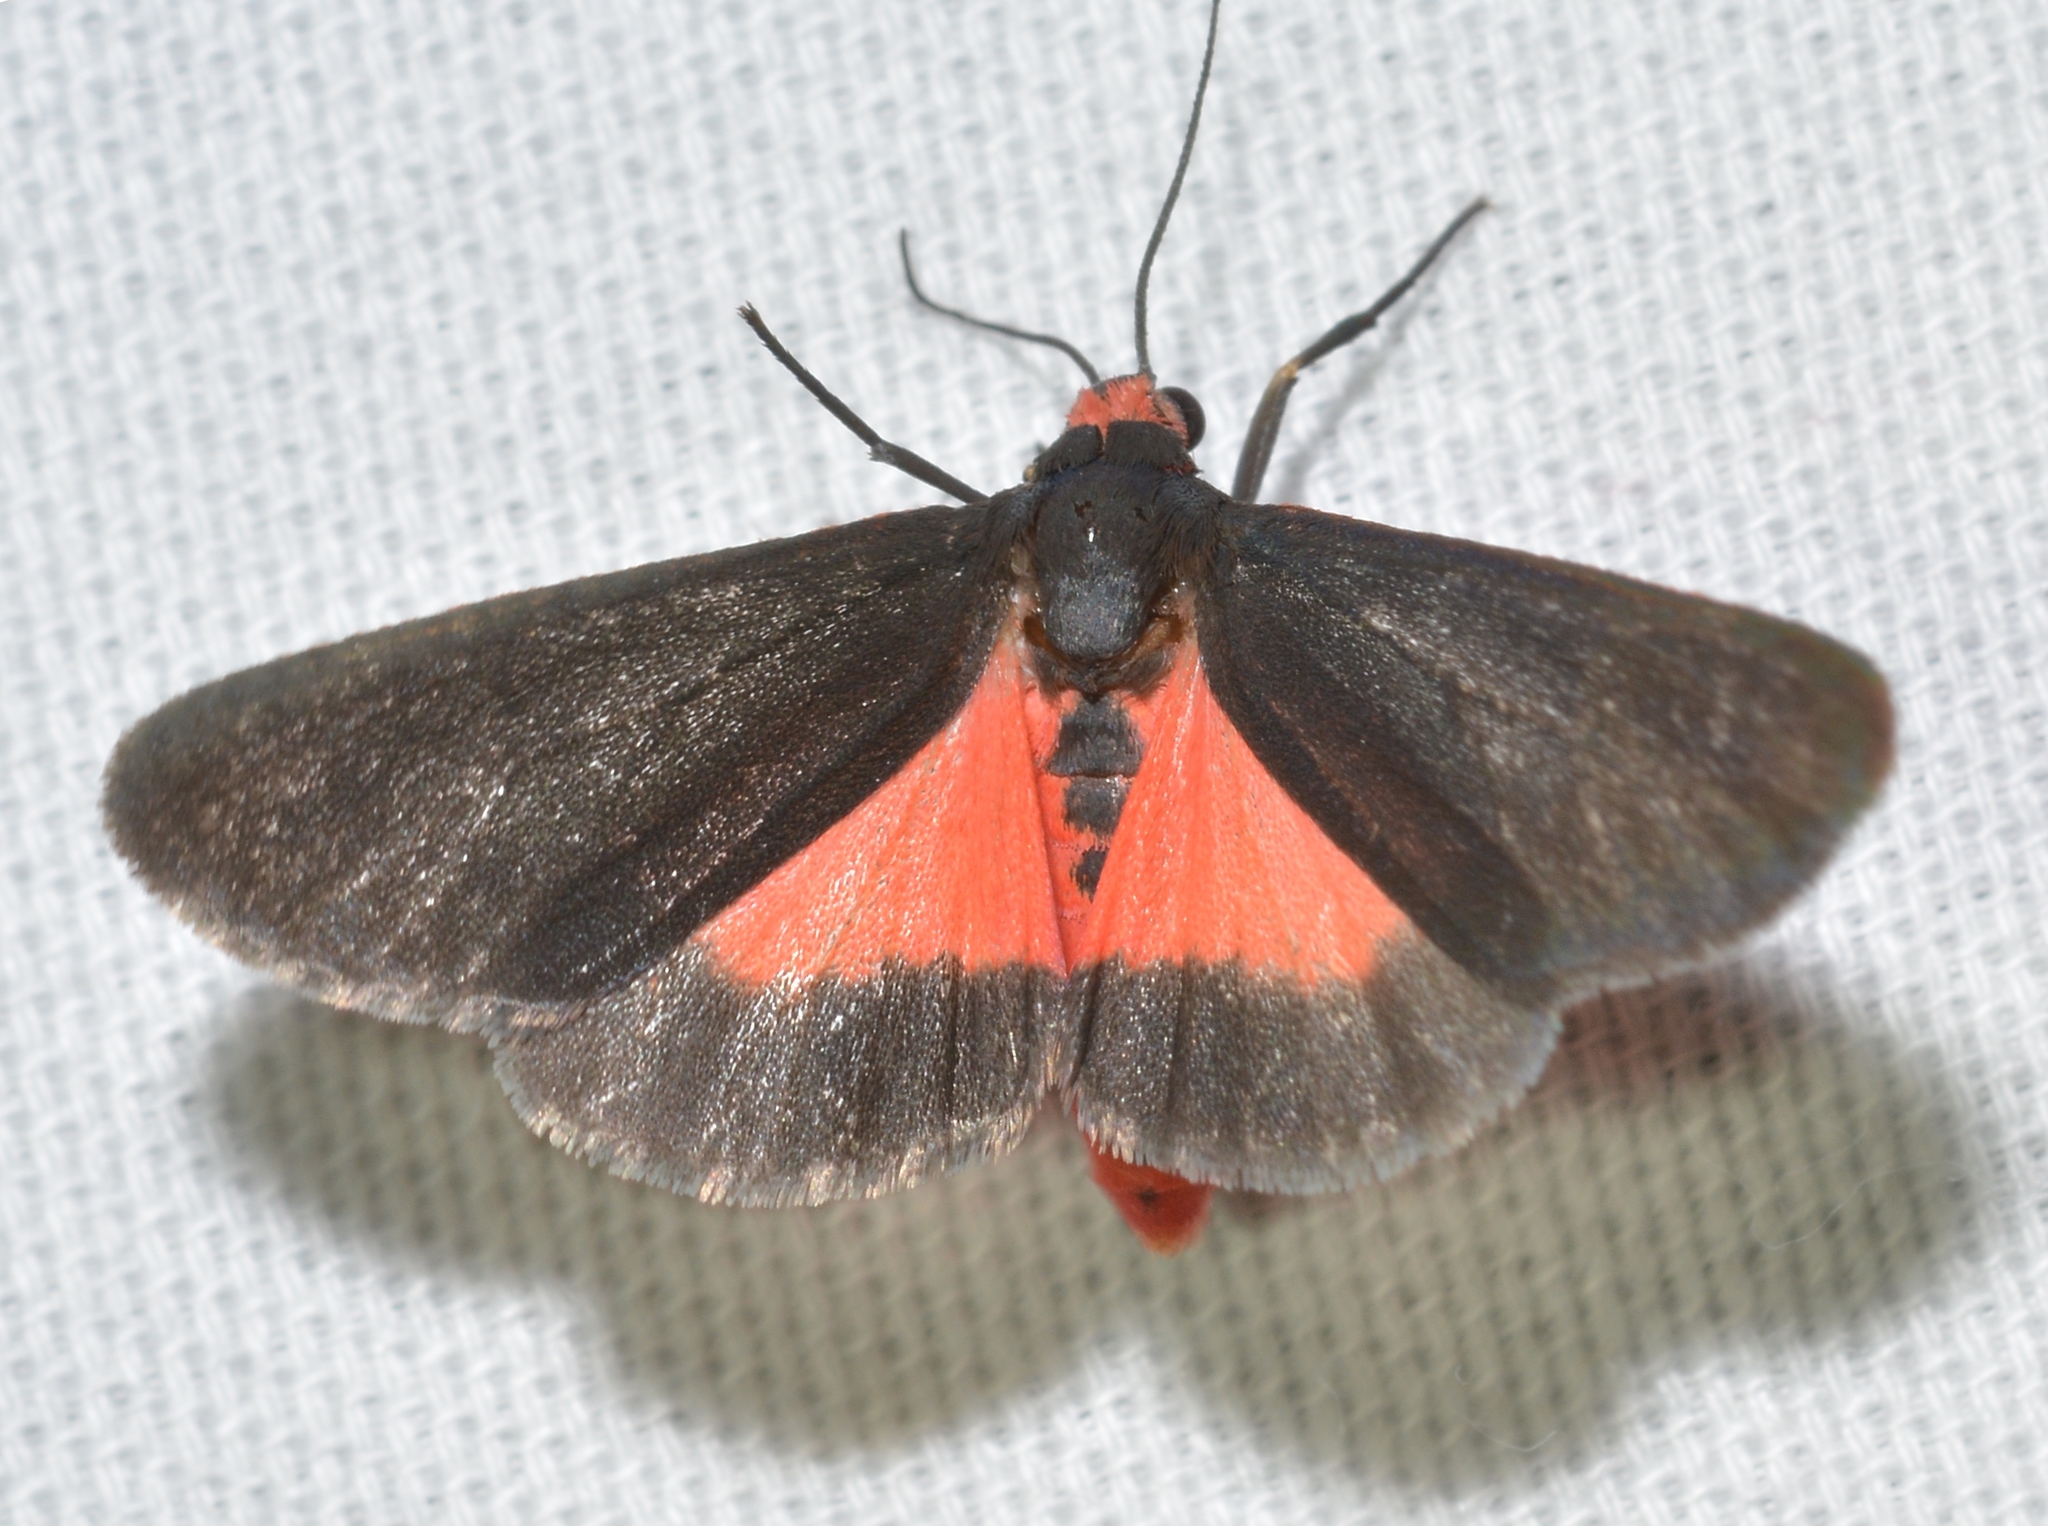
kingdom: Animalia
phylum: Arthropoda
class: Insecta
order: Lepidoptera
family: Erebidae
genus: Virbia
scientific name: Virbia laeta
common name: Joyful holomelina moth
